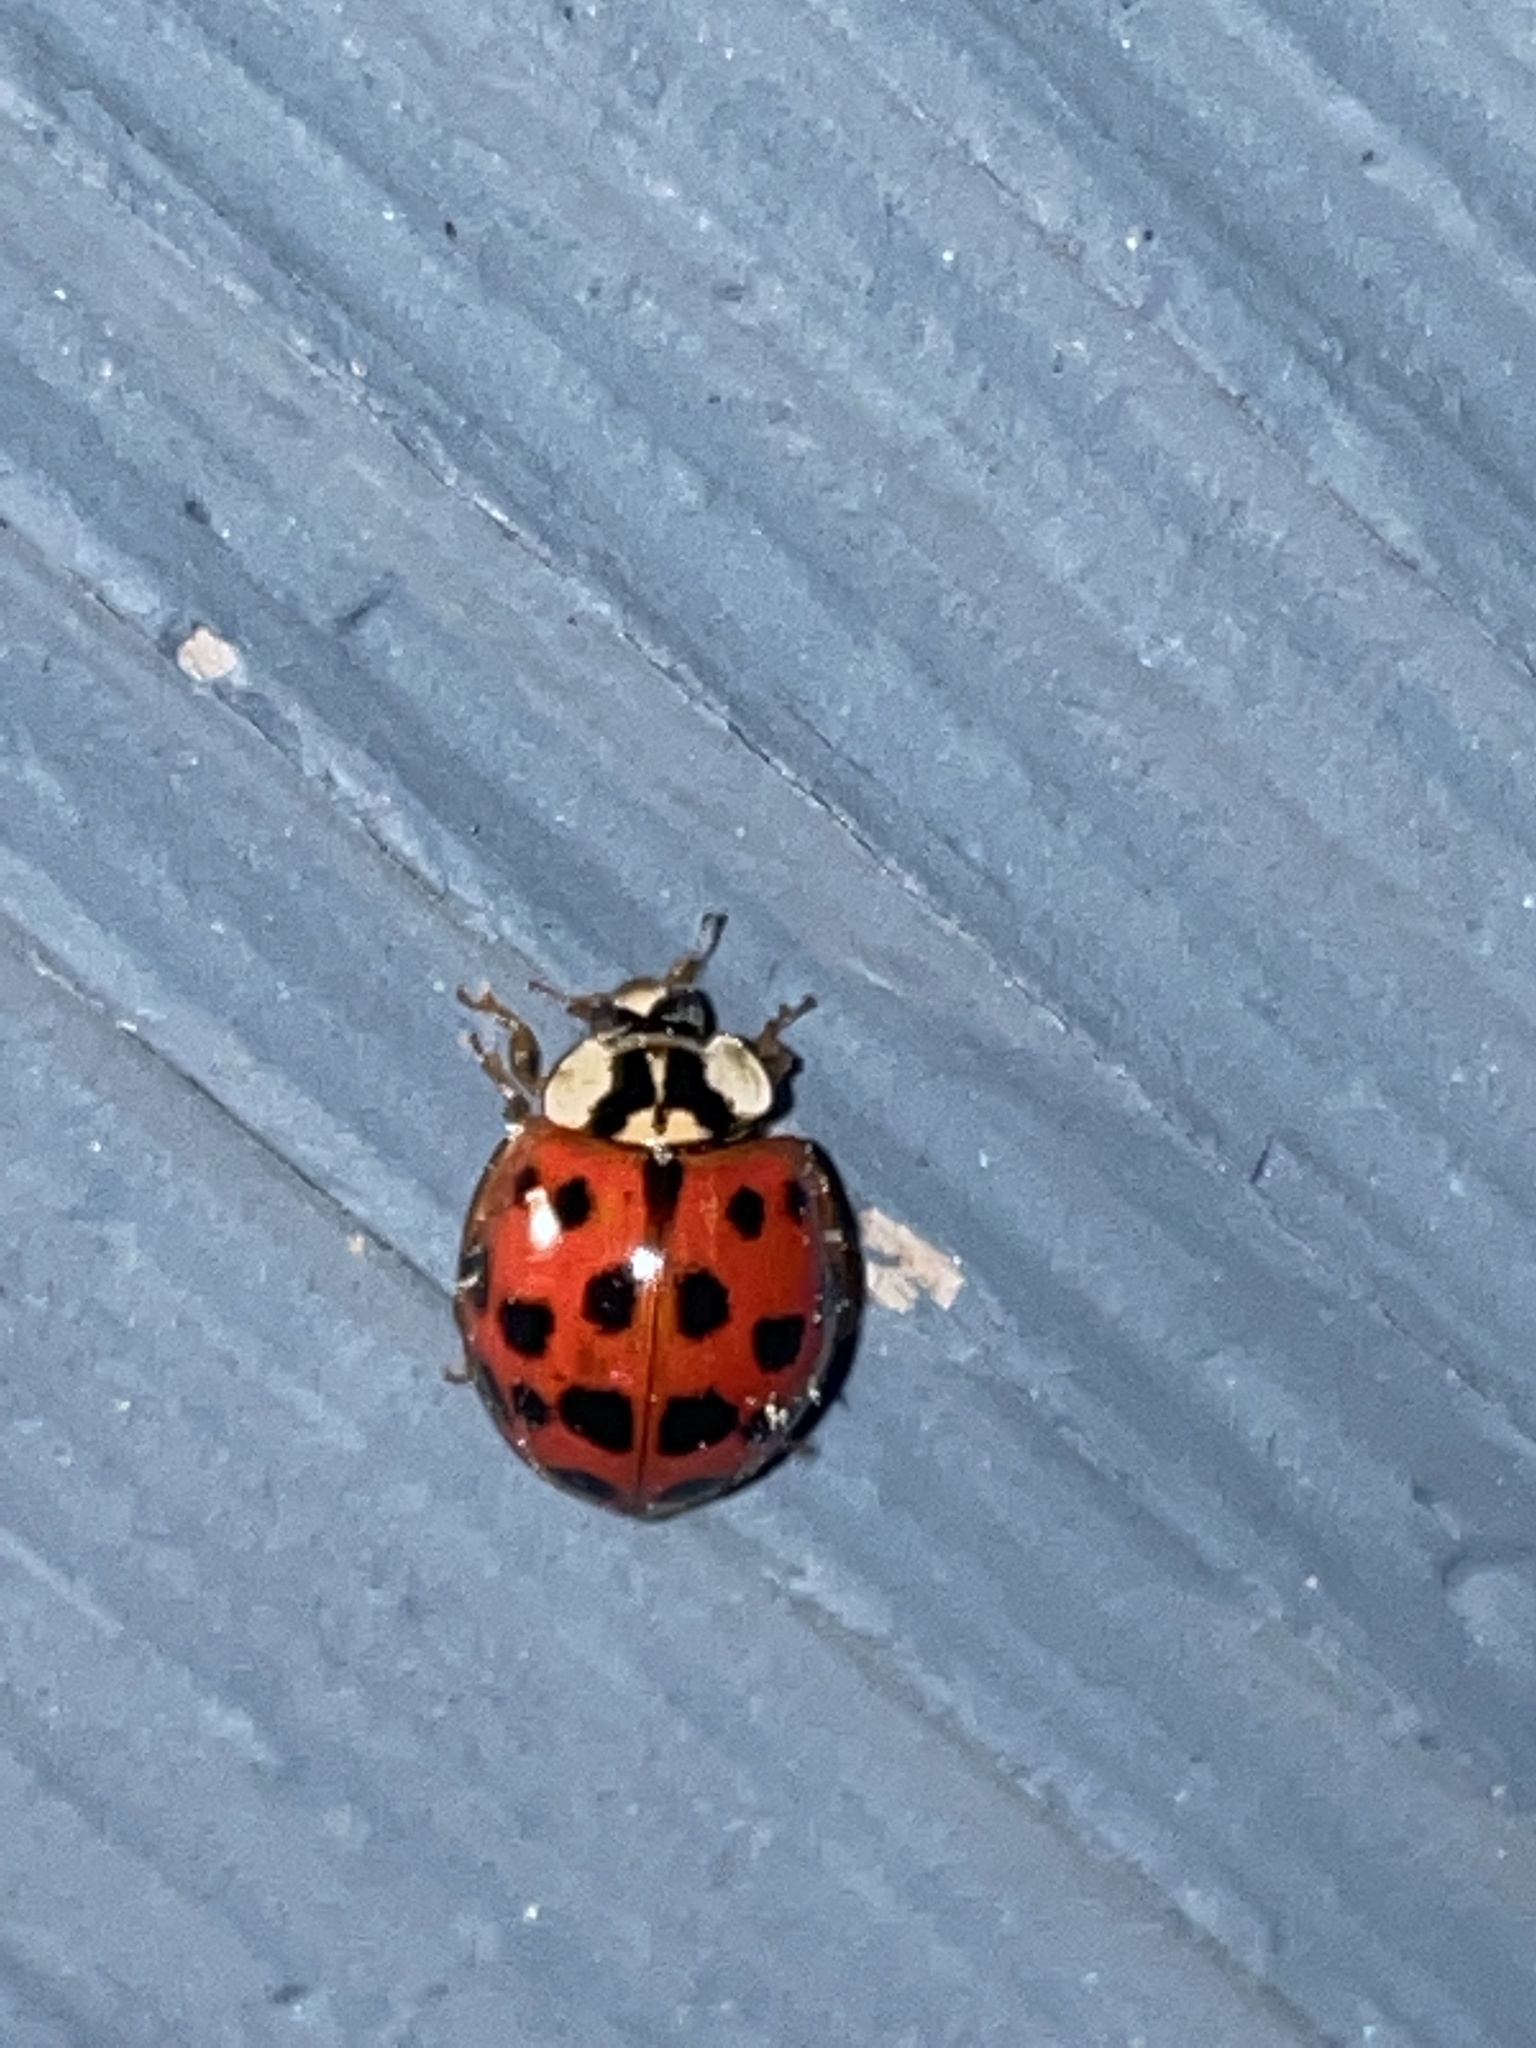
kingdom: Animalia
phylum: Arthropoda
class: Insecta
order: Coleoptera
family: Coccinellidae
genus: Harmonia
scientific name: Harmonia axyridis
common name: Harlequin ladybird
